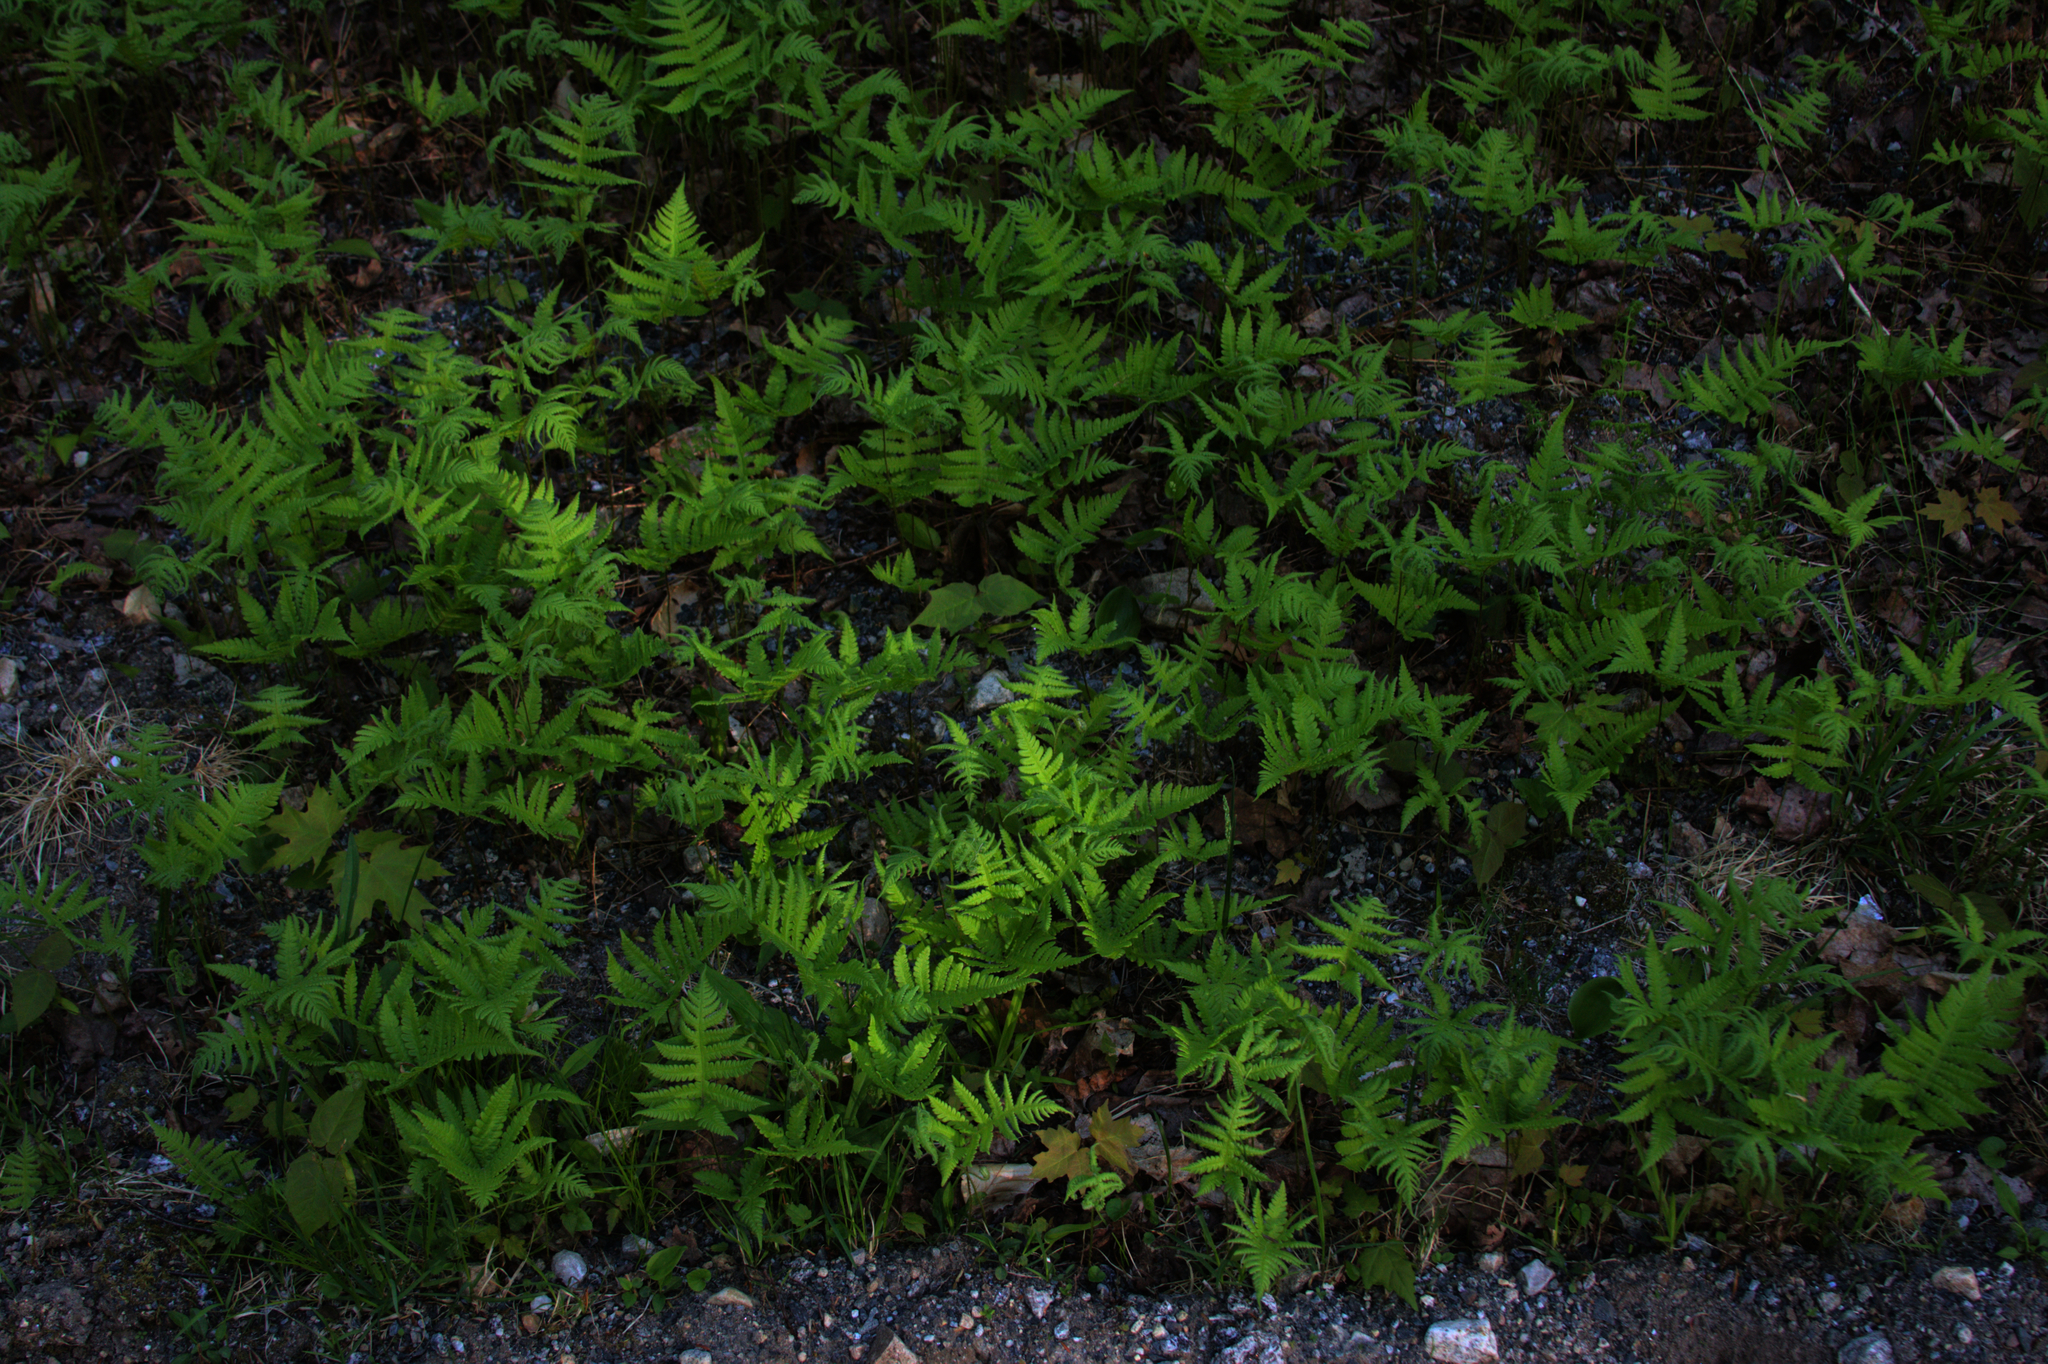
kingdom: Plantae
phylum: Tracheophyta
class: Polypodiopsida
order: Polypodiales
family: Thelypteridaceae
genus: Phegopteris
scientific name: Phegopteris connectilis
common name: Beech fern
